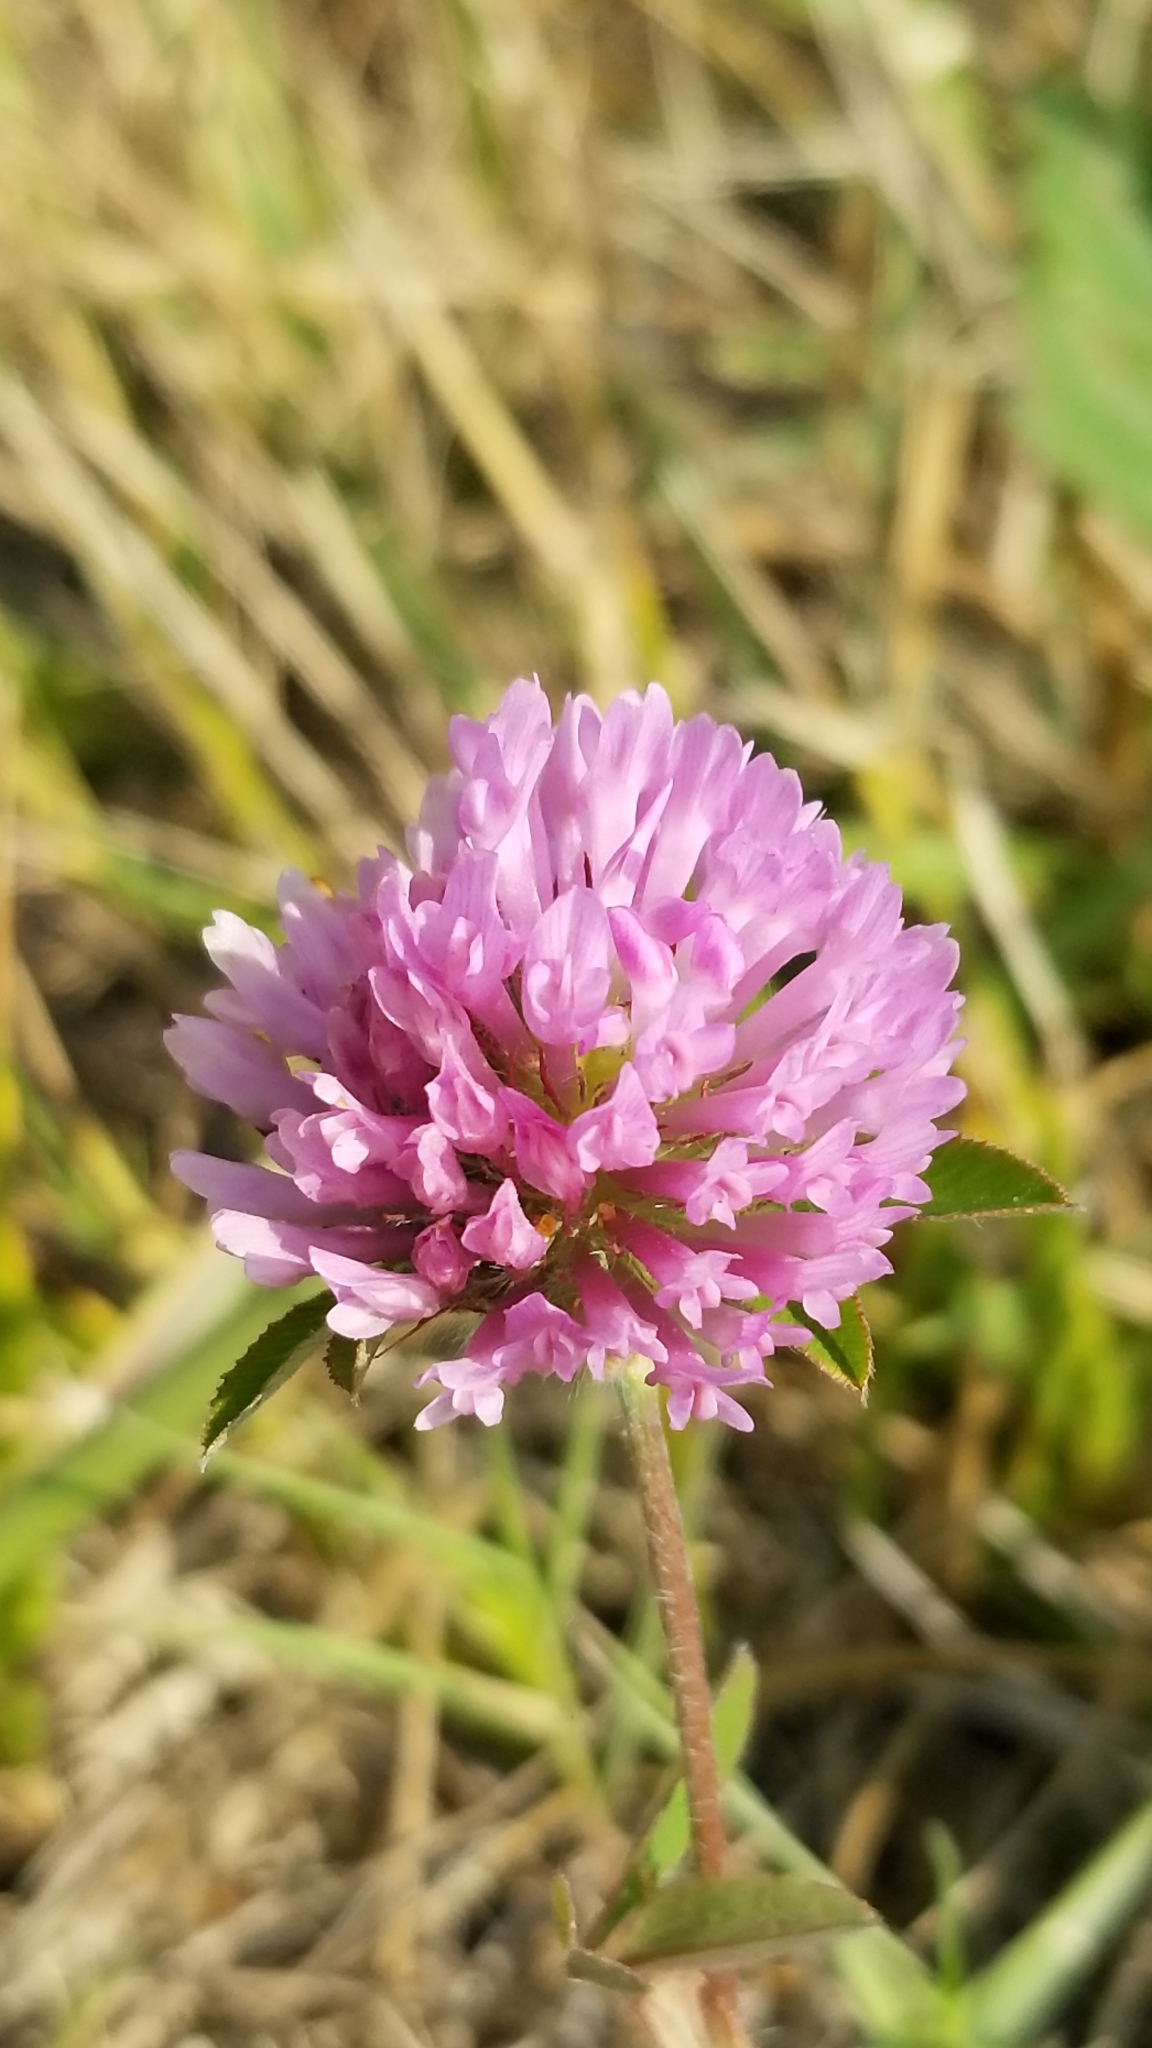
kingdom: Plantae
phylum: Tracheophyta
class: Magnoliopsida
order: Fabales
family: Fabaceae
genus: Trifolium
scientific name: Trifolium pratense
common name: Red clover
